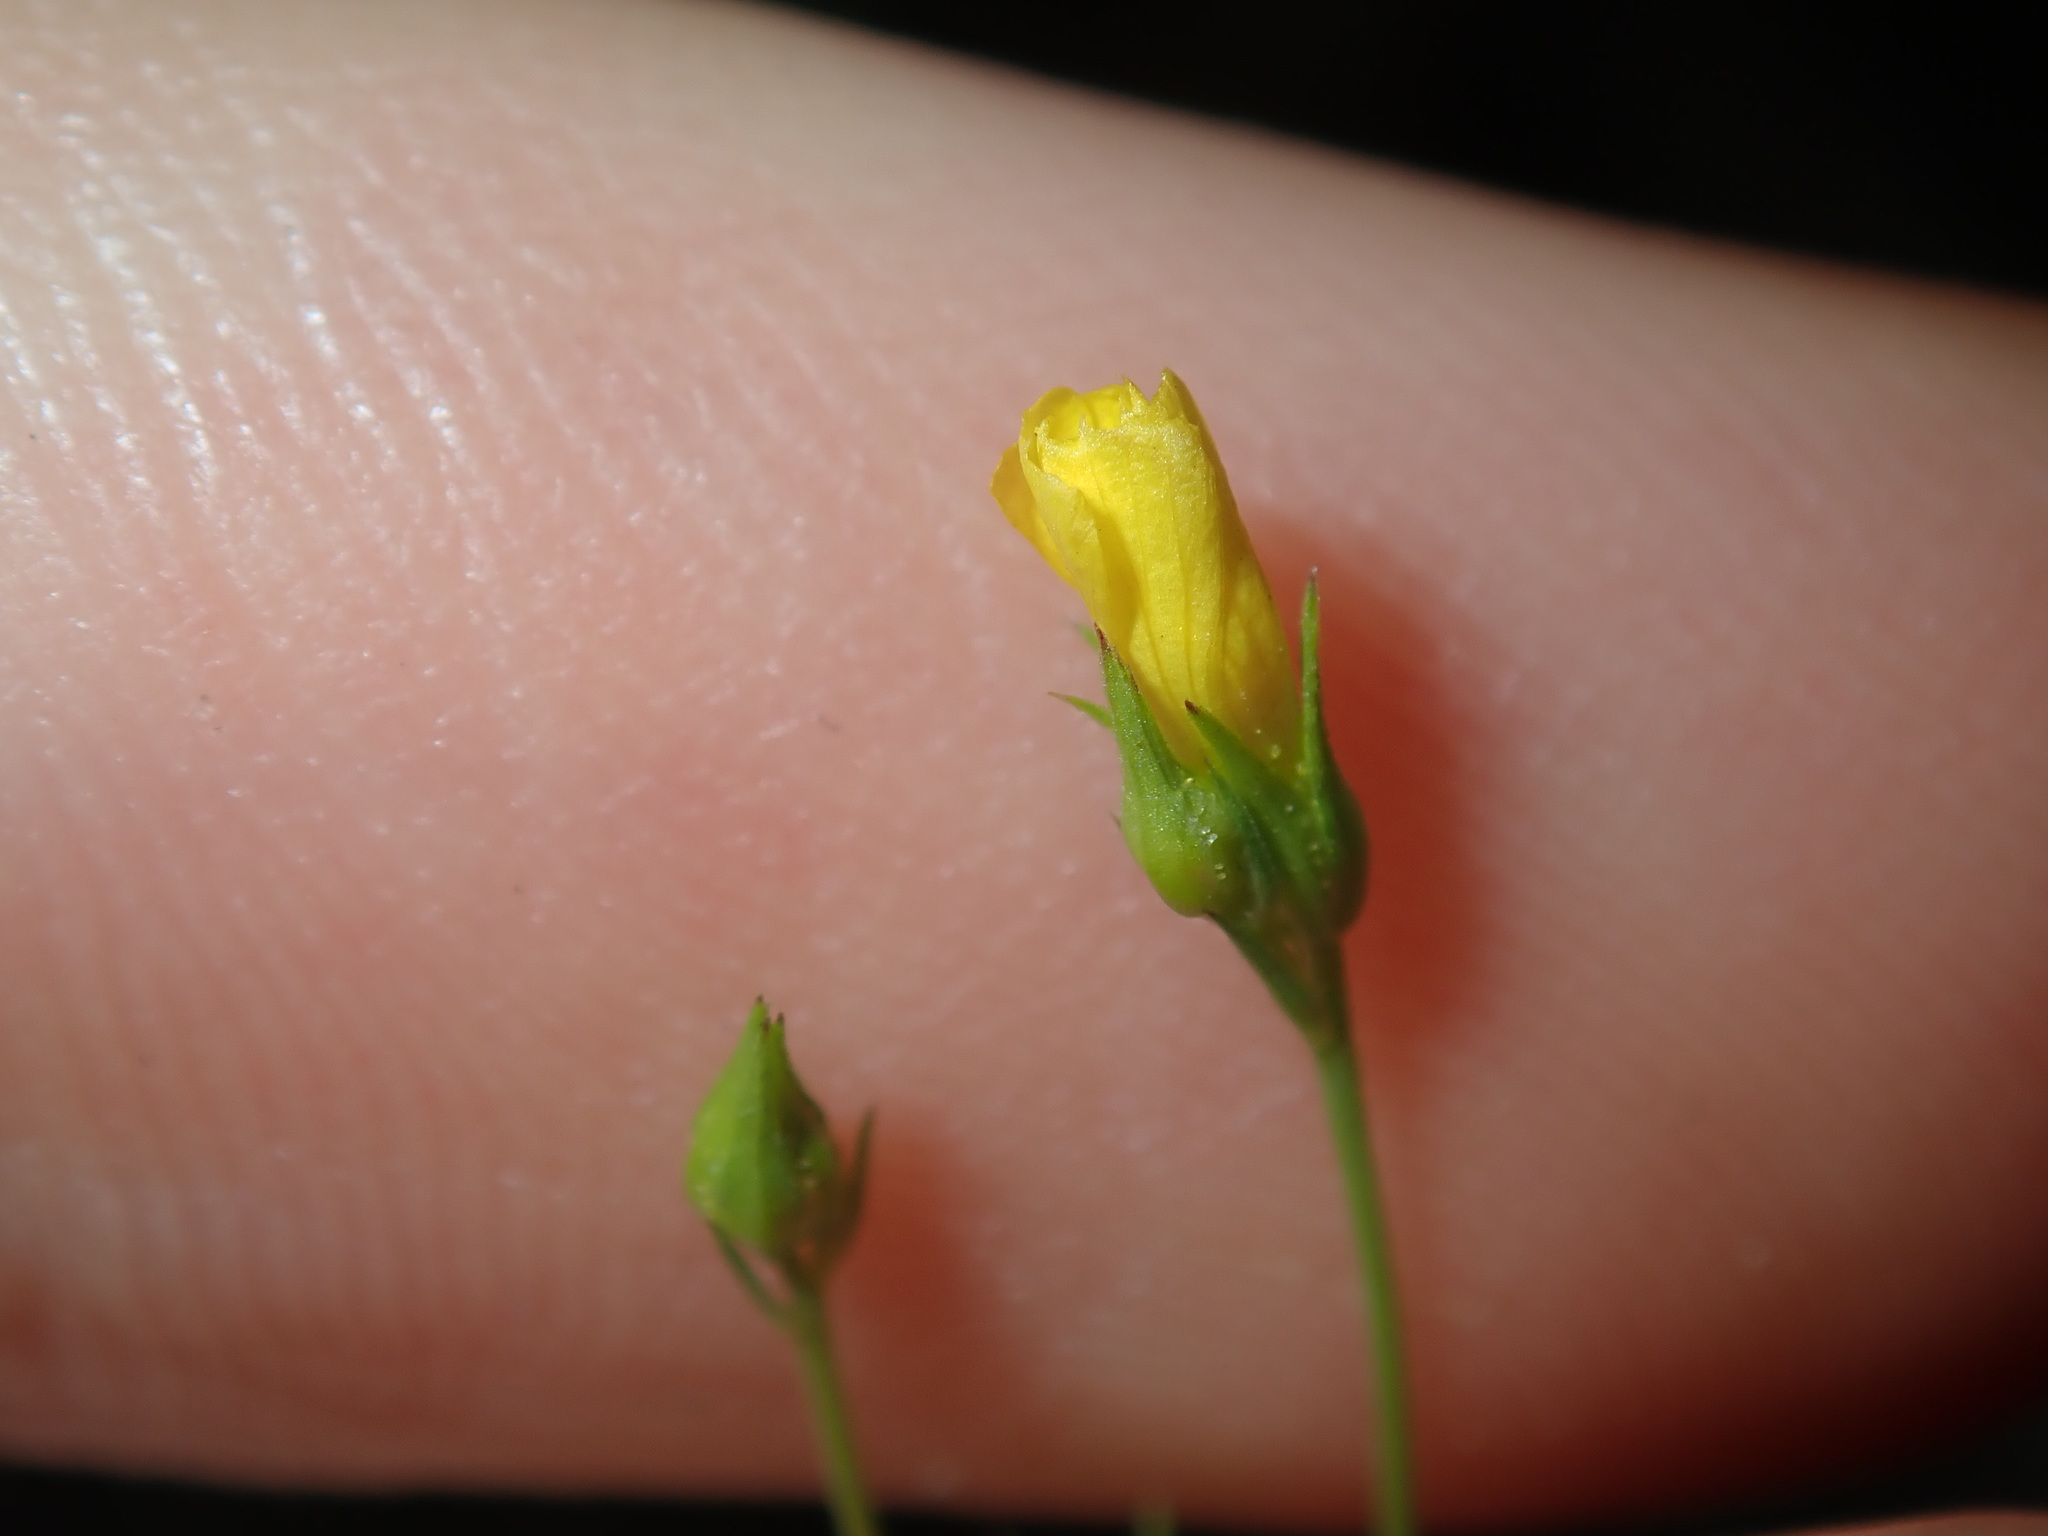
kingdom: Plantae
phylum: Tracheophyta
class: Magnoliopsida
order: Malpighiales
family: Linaceae
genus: Linum
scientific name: Linum trigynum
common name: French flax
